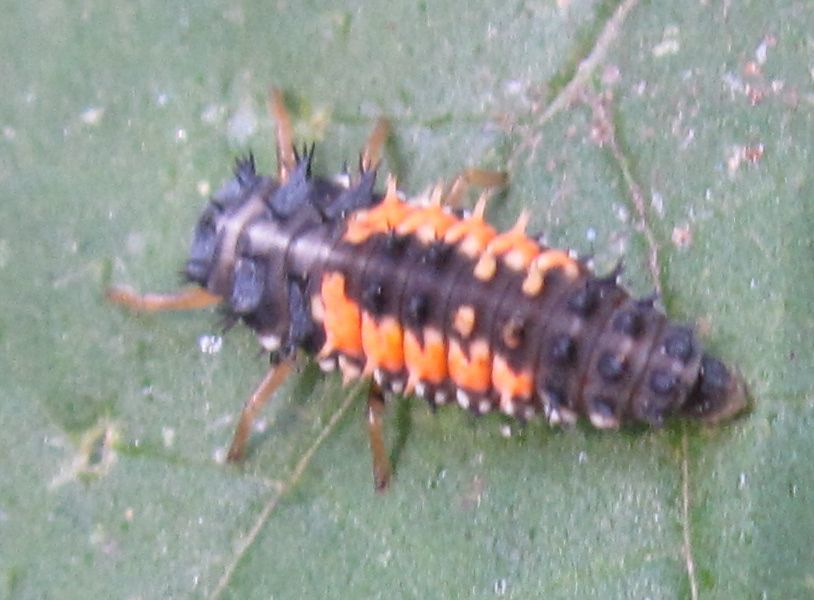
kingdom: Animalia
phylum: Arthropoda
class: Insecta
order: Coleoptera
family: Coccinellidae
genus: Harmonia
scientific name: Harmonia axyridis
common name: Harlequin ladybird
